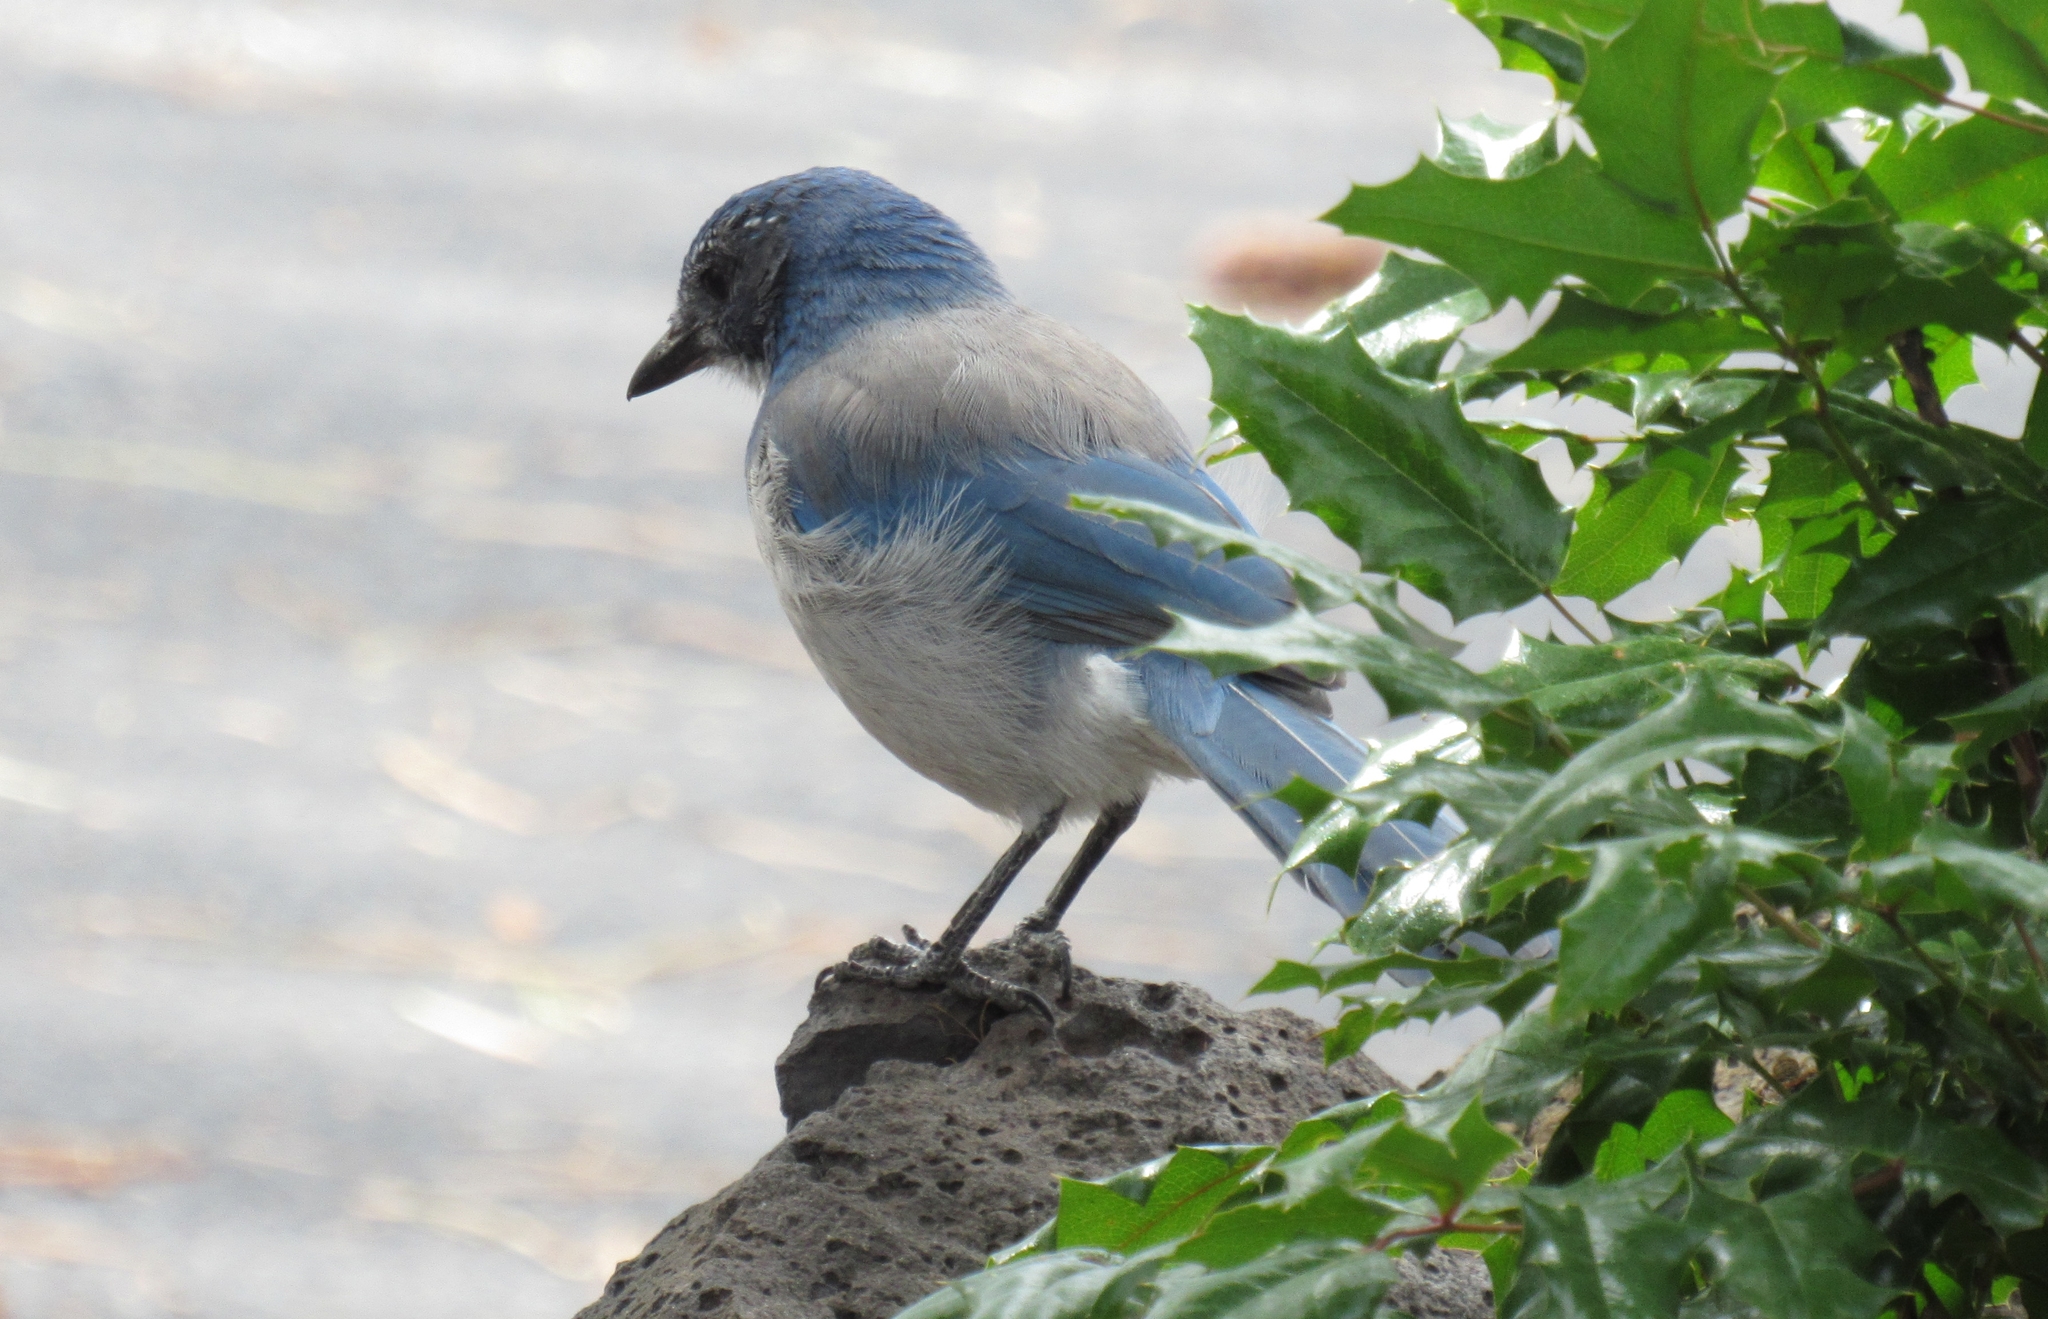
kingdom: Animalia
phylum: Chordata
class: Aves
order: Passeriformes
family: Corvidae
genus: Aphelocoma
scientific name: Aphelocoma californica
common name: California scrub-jay
